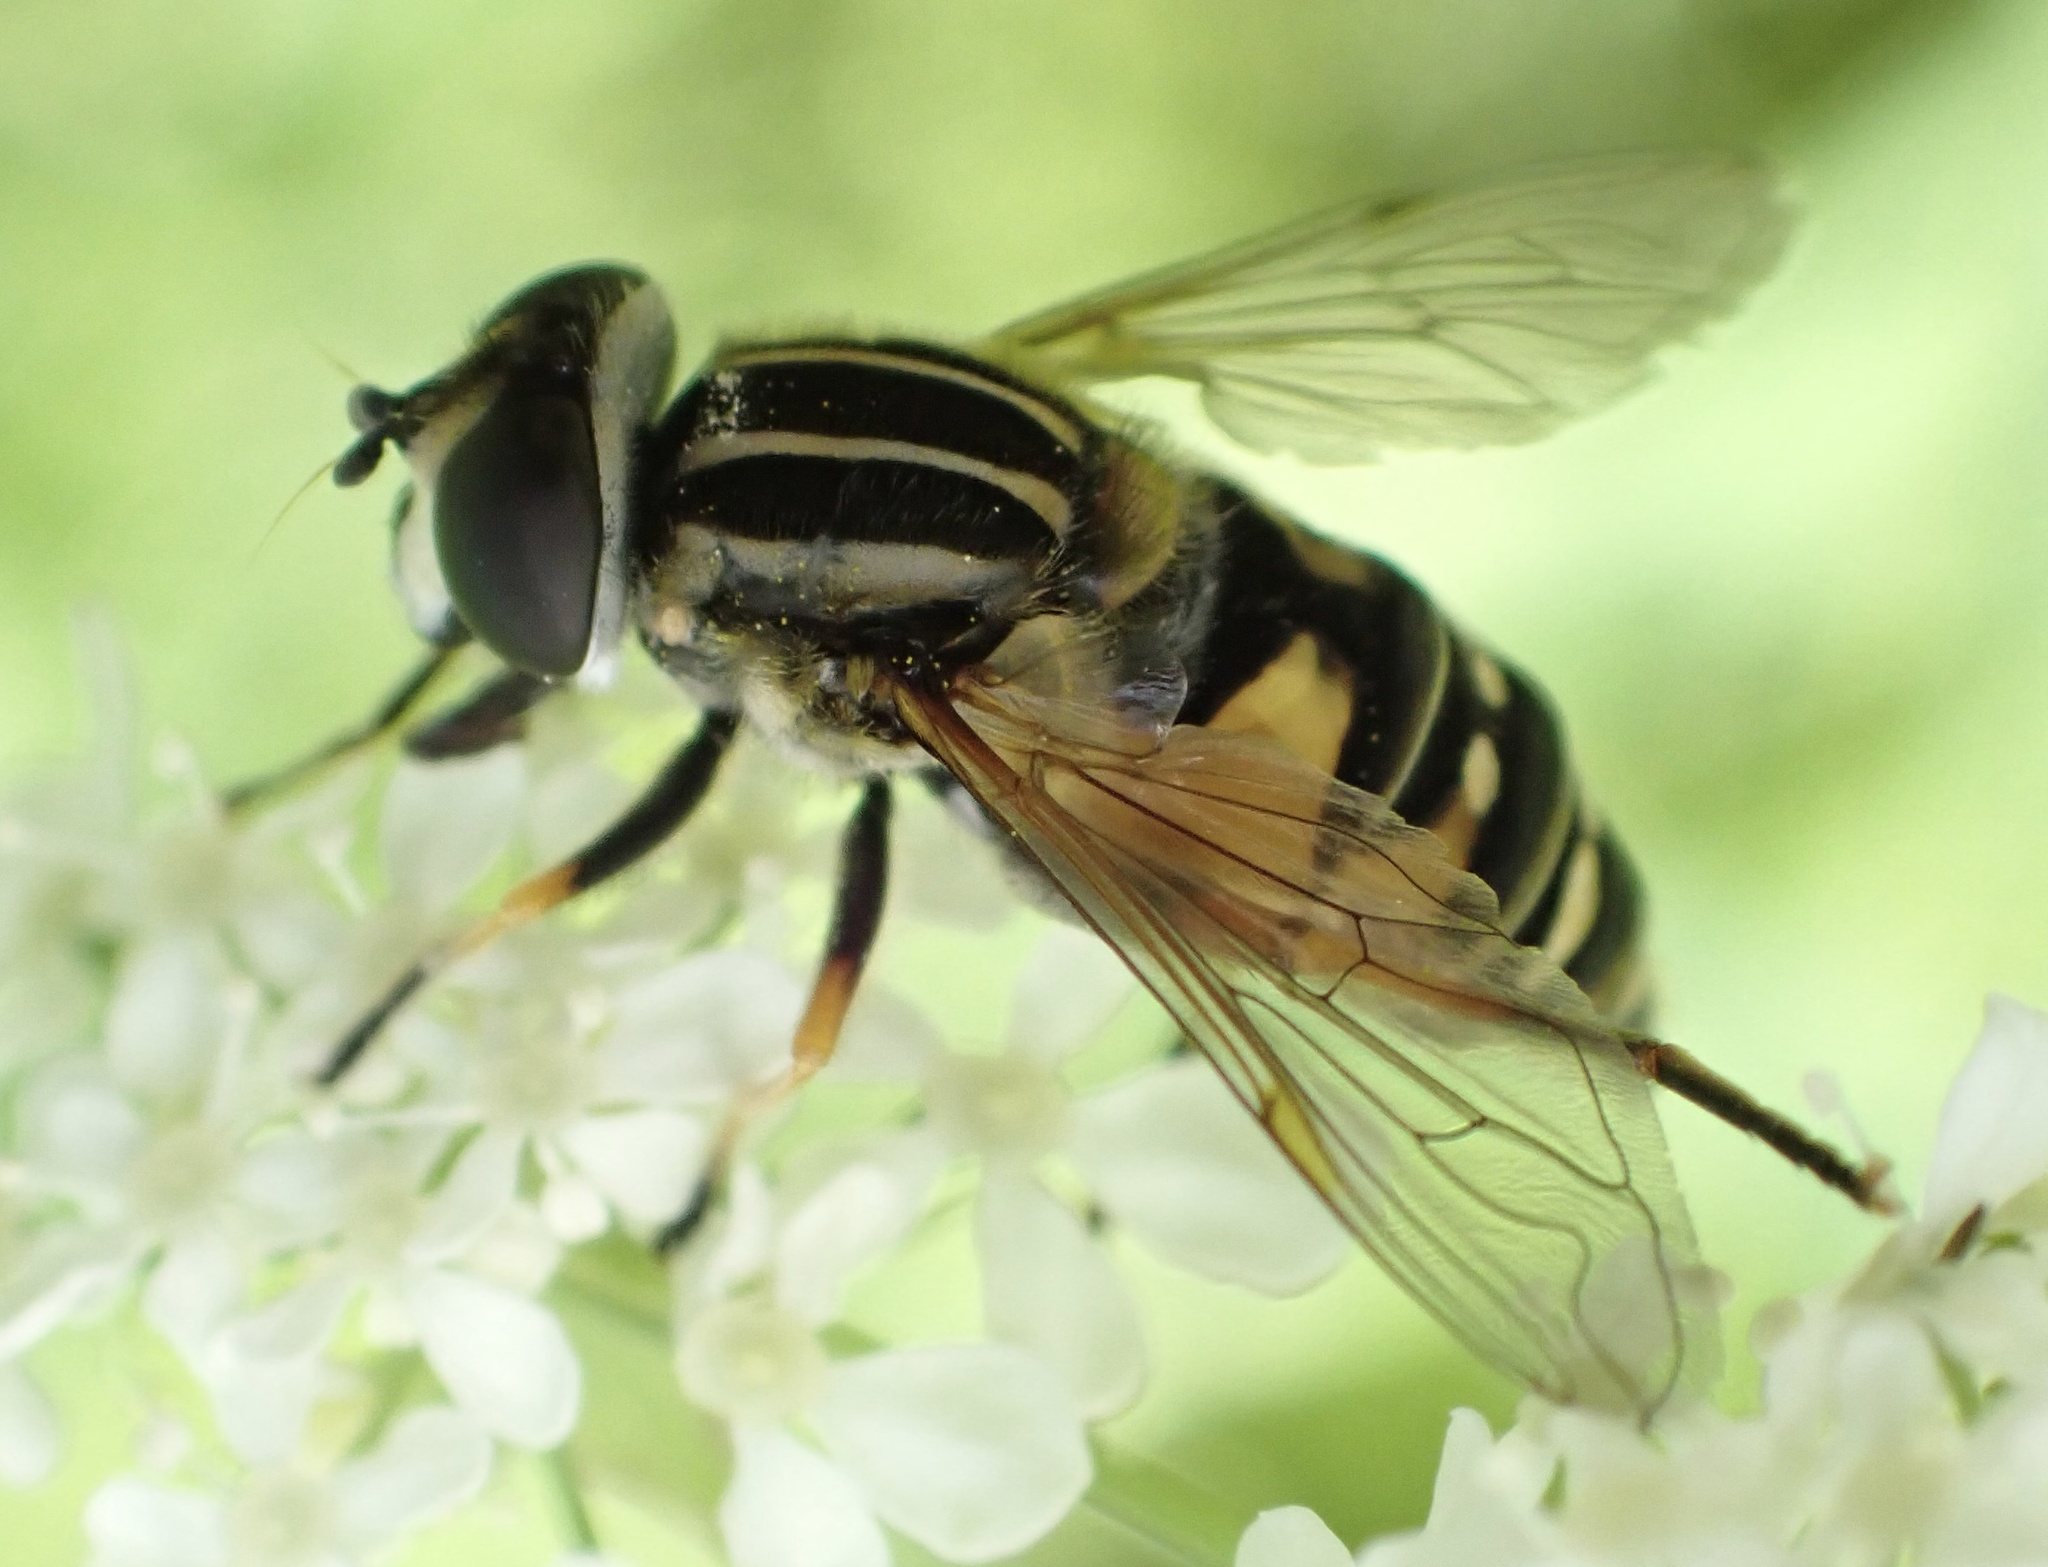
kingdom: Animalia
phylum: Arthropoda
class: Insecta
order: Diptera
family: Syrphidae
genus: Helophilus
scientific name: Helophilus pendulus
